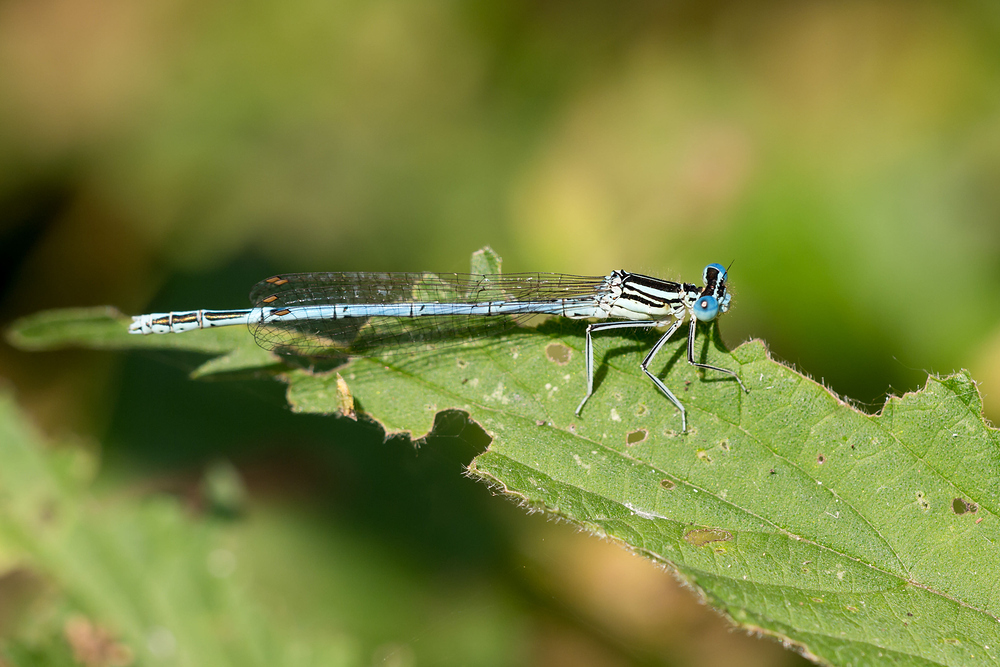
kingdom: Animalia
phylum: Arthropoda
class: Insecta
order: Odonata
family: Platycnemididae
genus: Platycnemis
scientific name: Platycnemis pennipes
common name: White-legged damselfly
